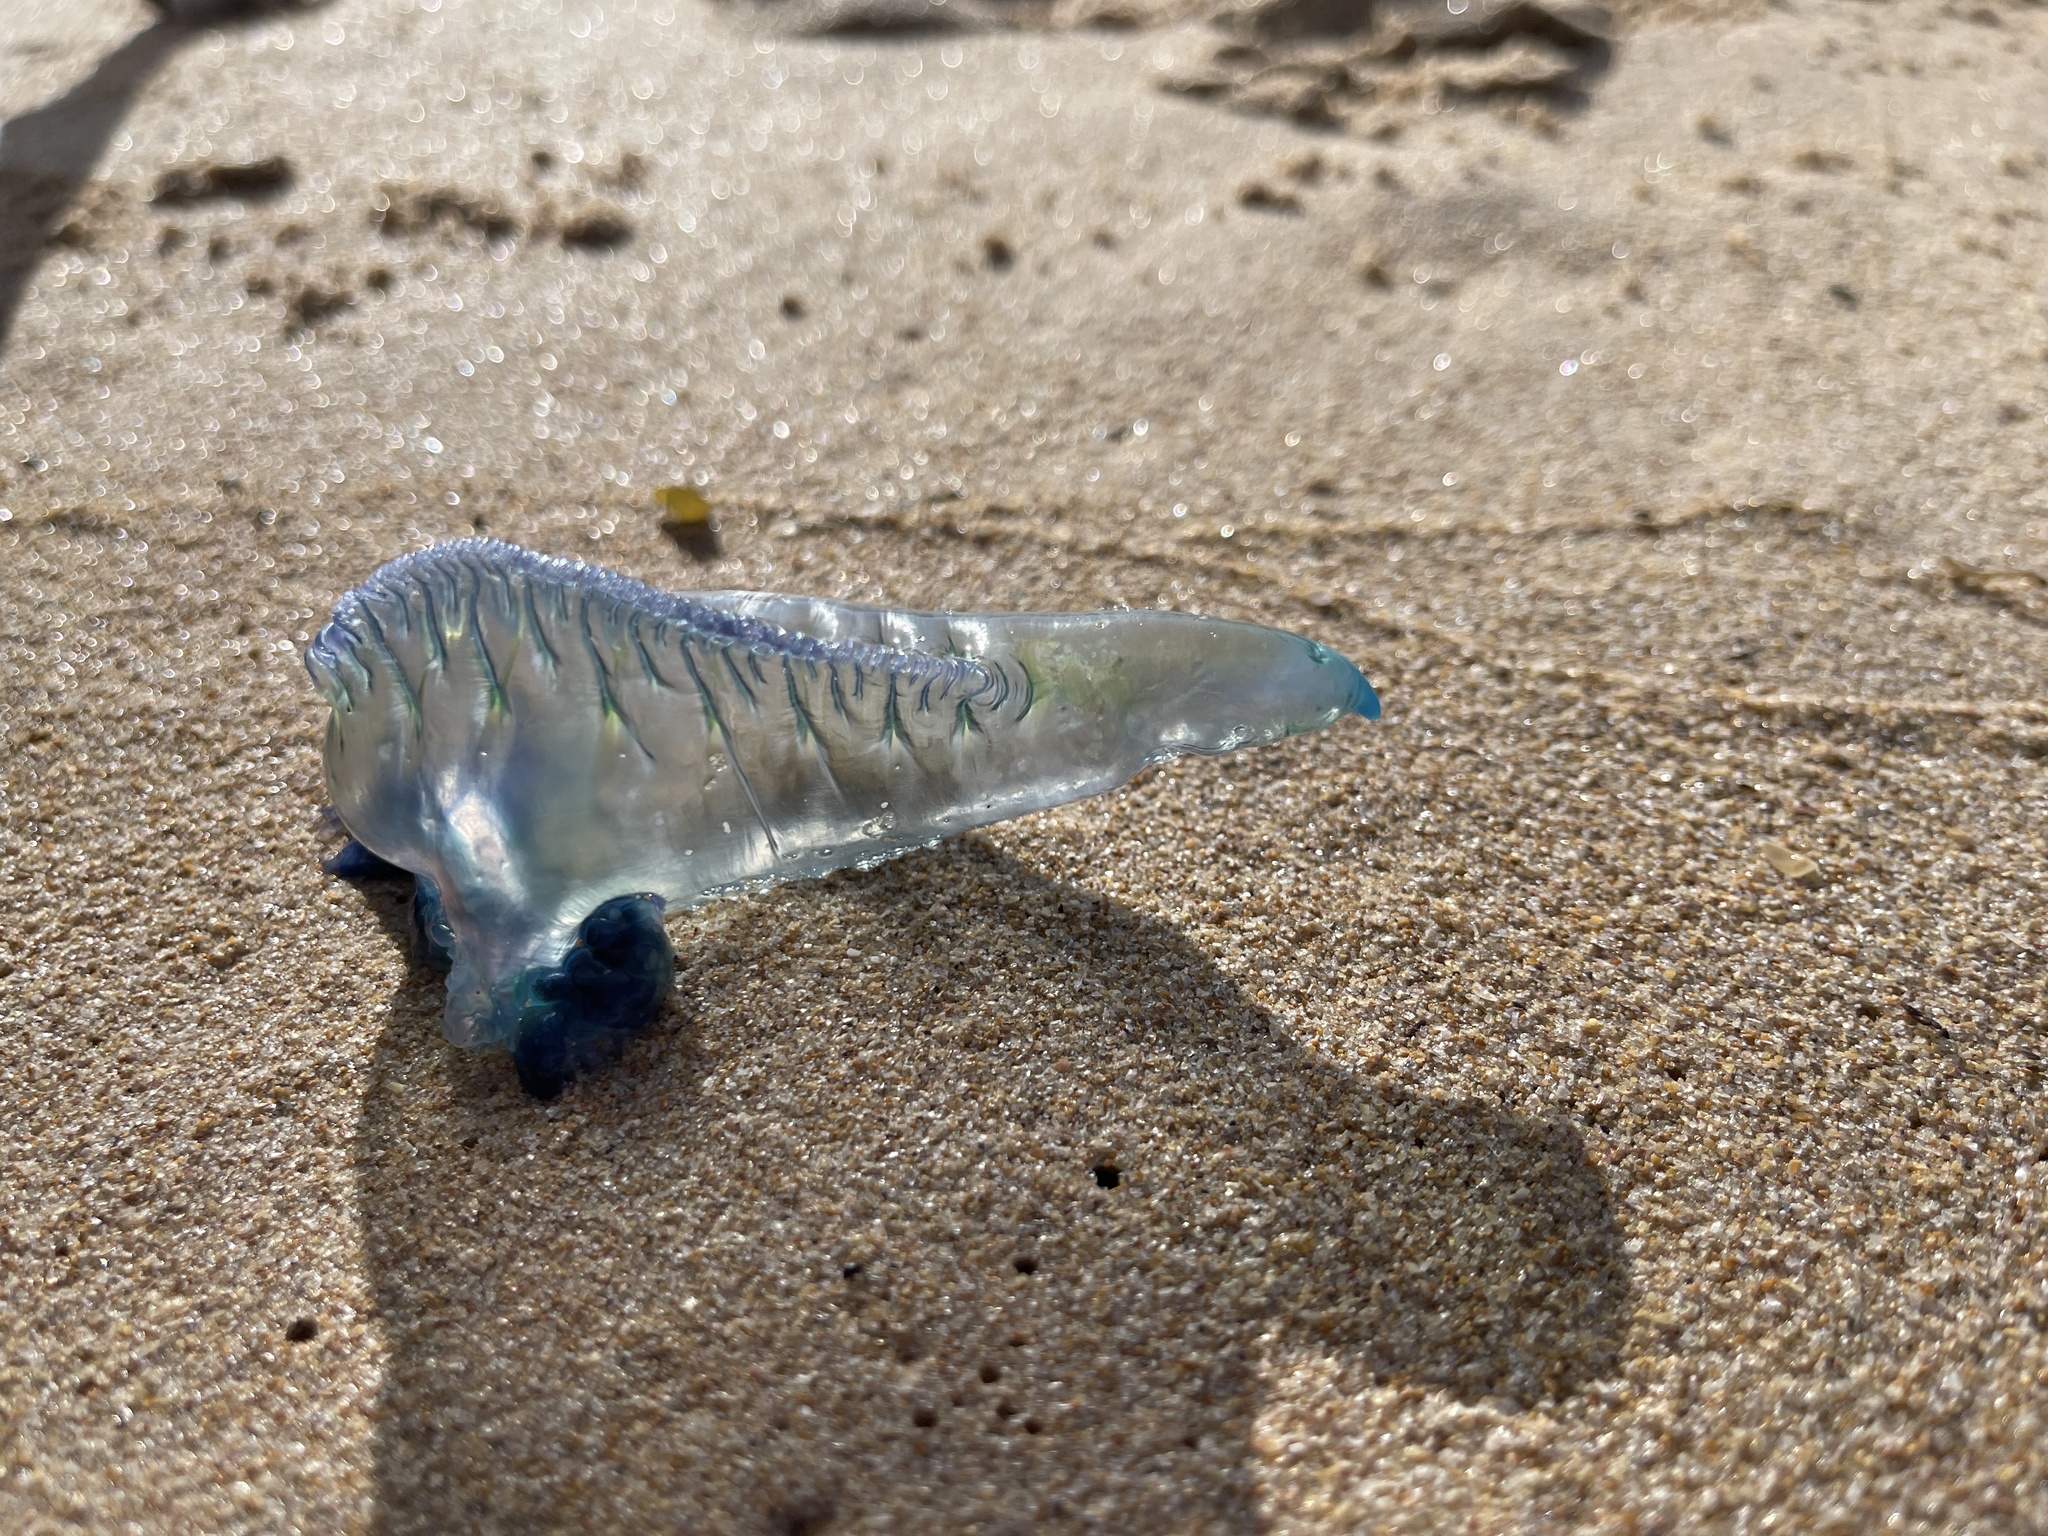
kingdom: Animalia
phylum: Cnidaria
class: Hydrozoa
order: Siphonophorae
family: Physaliidae
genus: Physalia
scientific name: Physalia physalis
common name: Portuguese man-of-war
